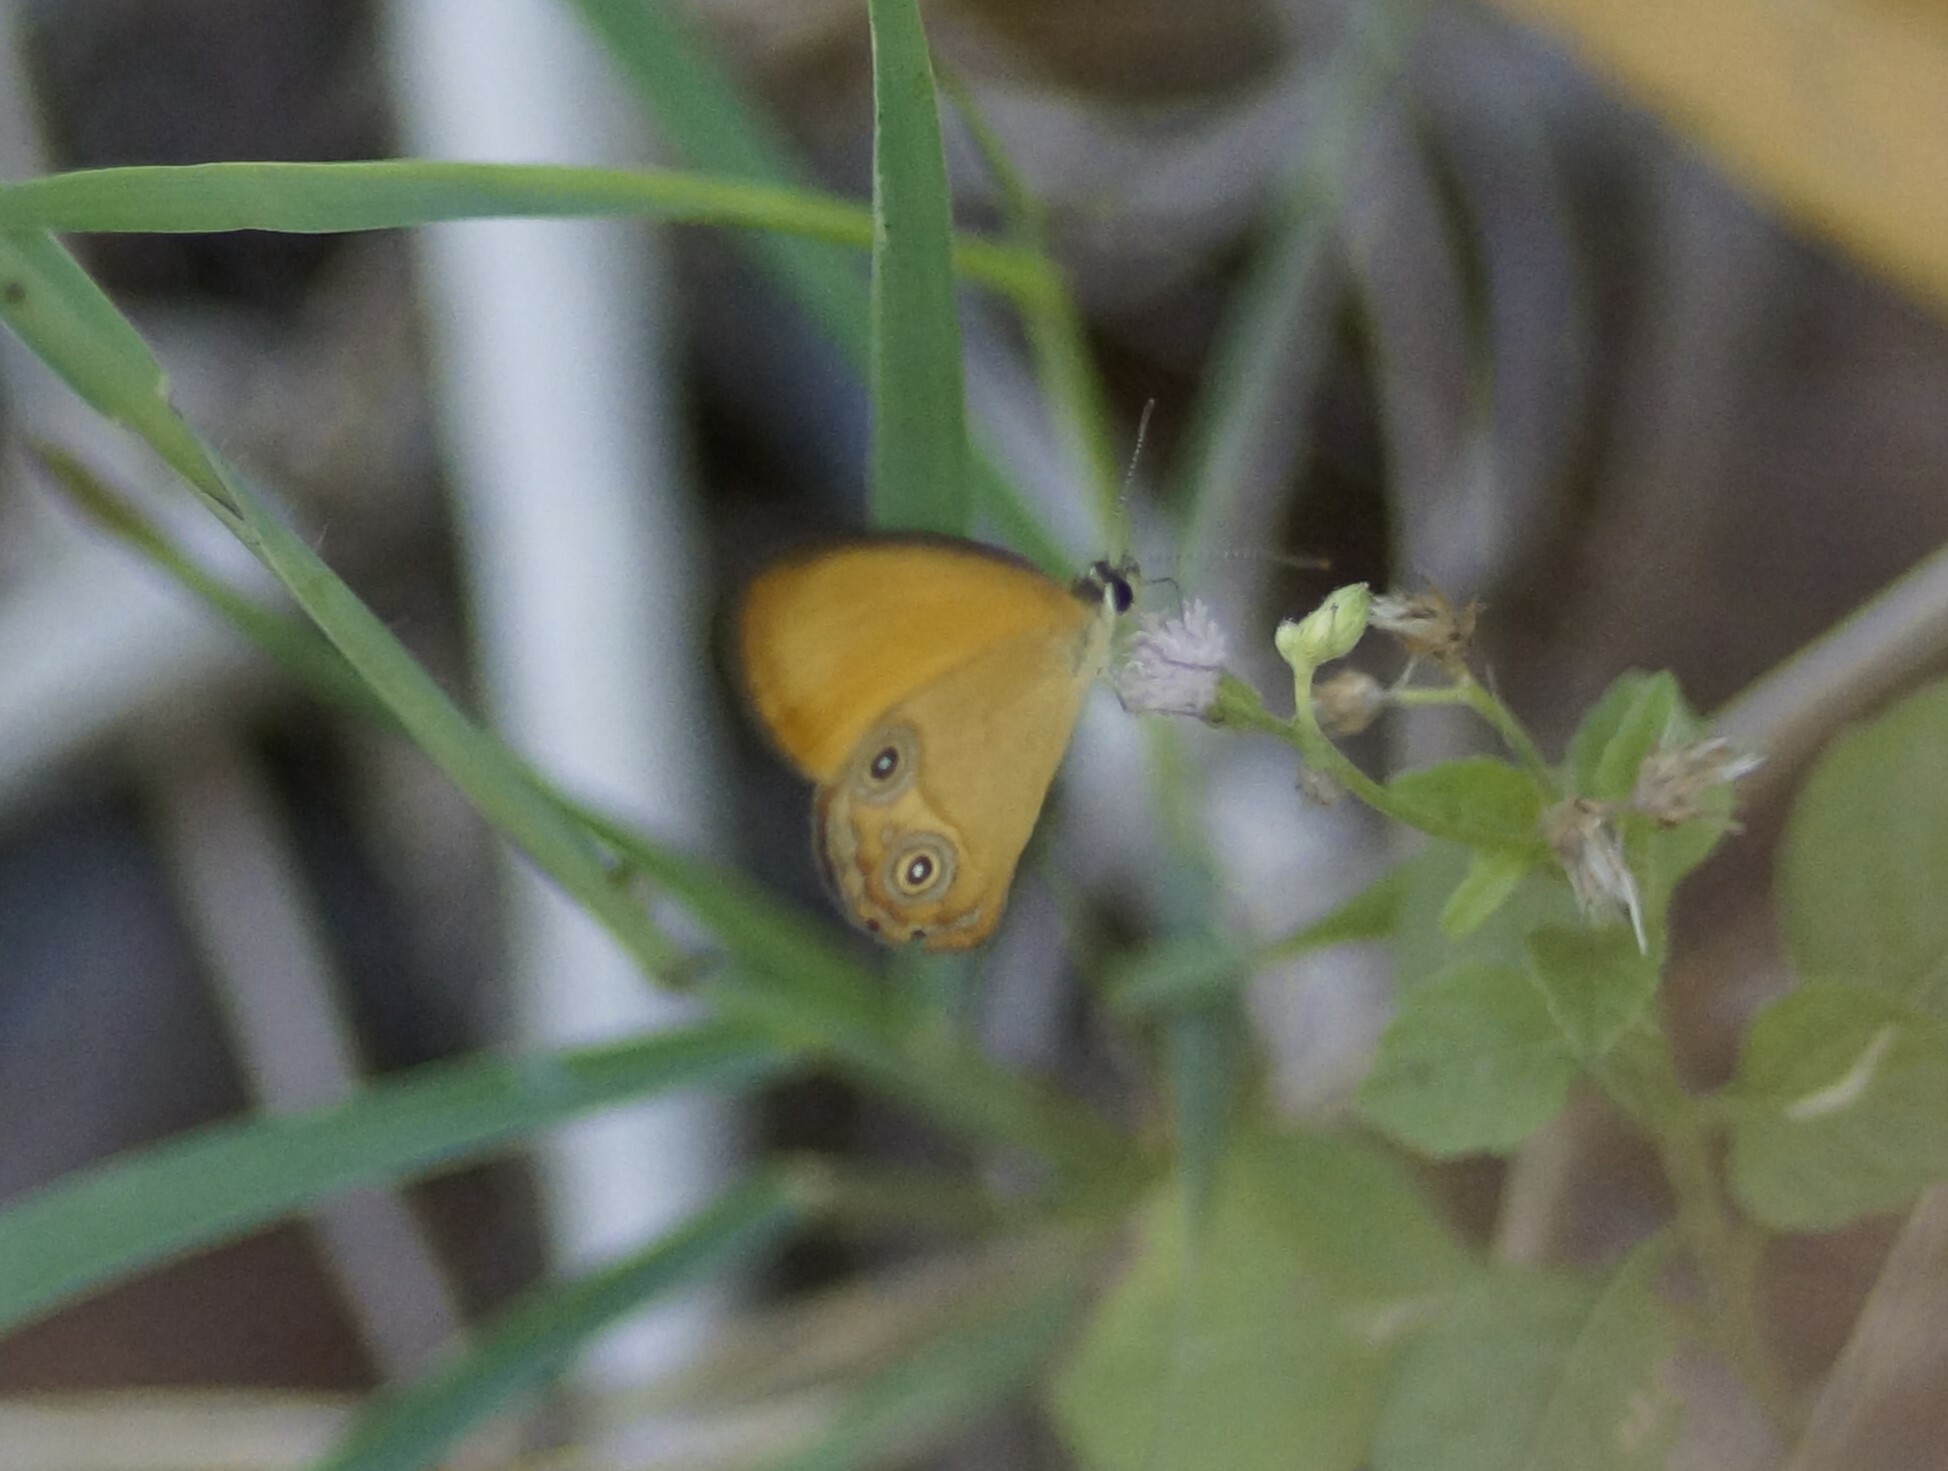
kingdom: Animalia
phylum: Arthropoda
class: Insecta
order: Lepidoptera
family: Nymphalidae
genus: Hypocysta
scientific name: Hypocysta adiante
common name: Orange ringlet
